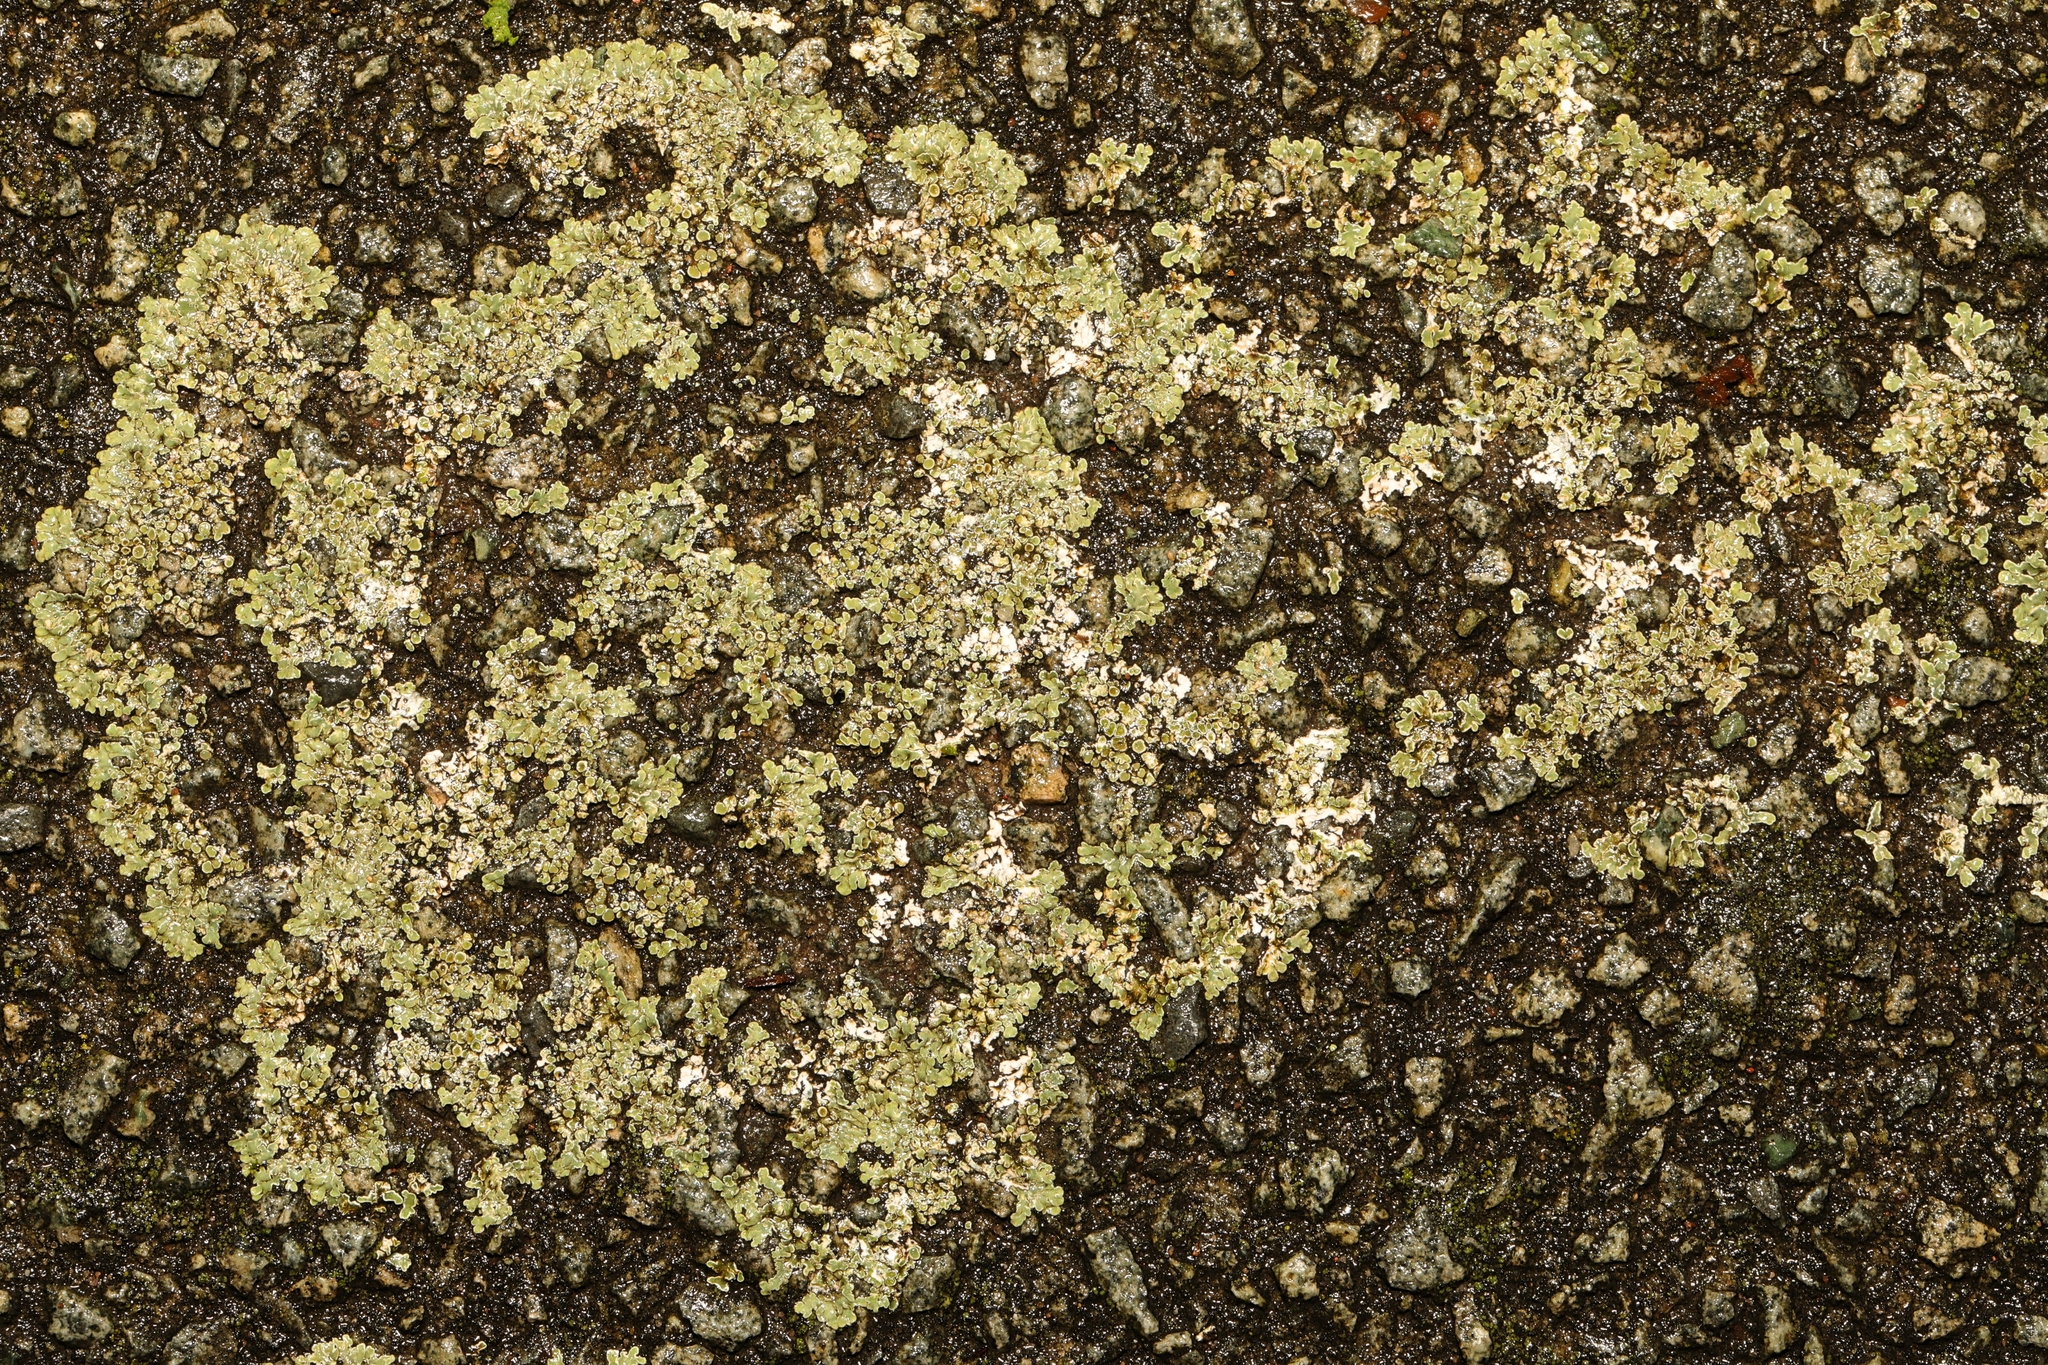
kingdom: Fungi
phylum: Ascomycota
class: Lecanoromycetes
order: Lecanorales
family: Lecanoraceae
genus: Protoparmeliopsis
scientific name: Protoparmeliopsis muralis
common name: Stonewall rim lichen
